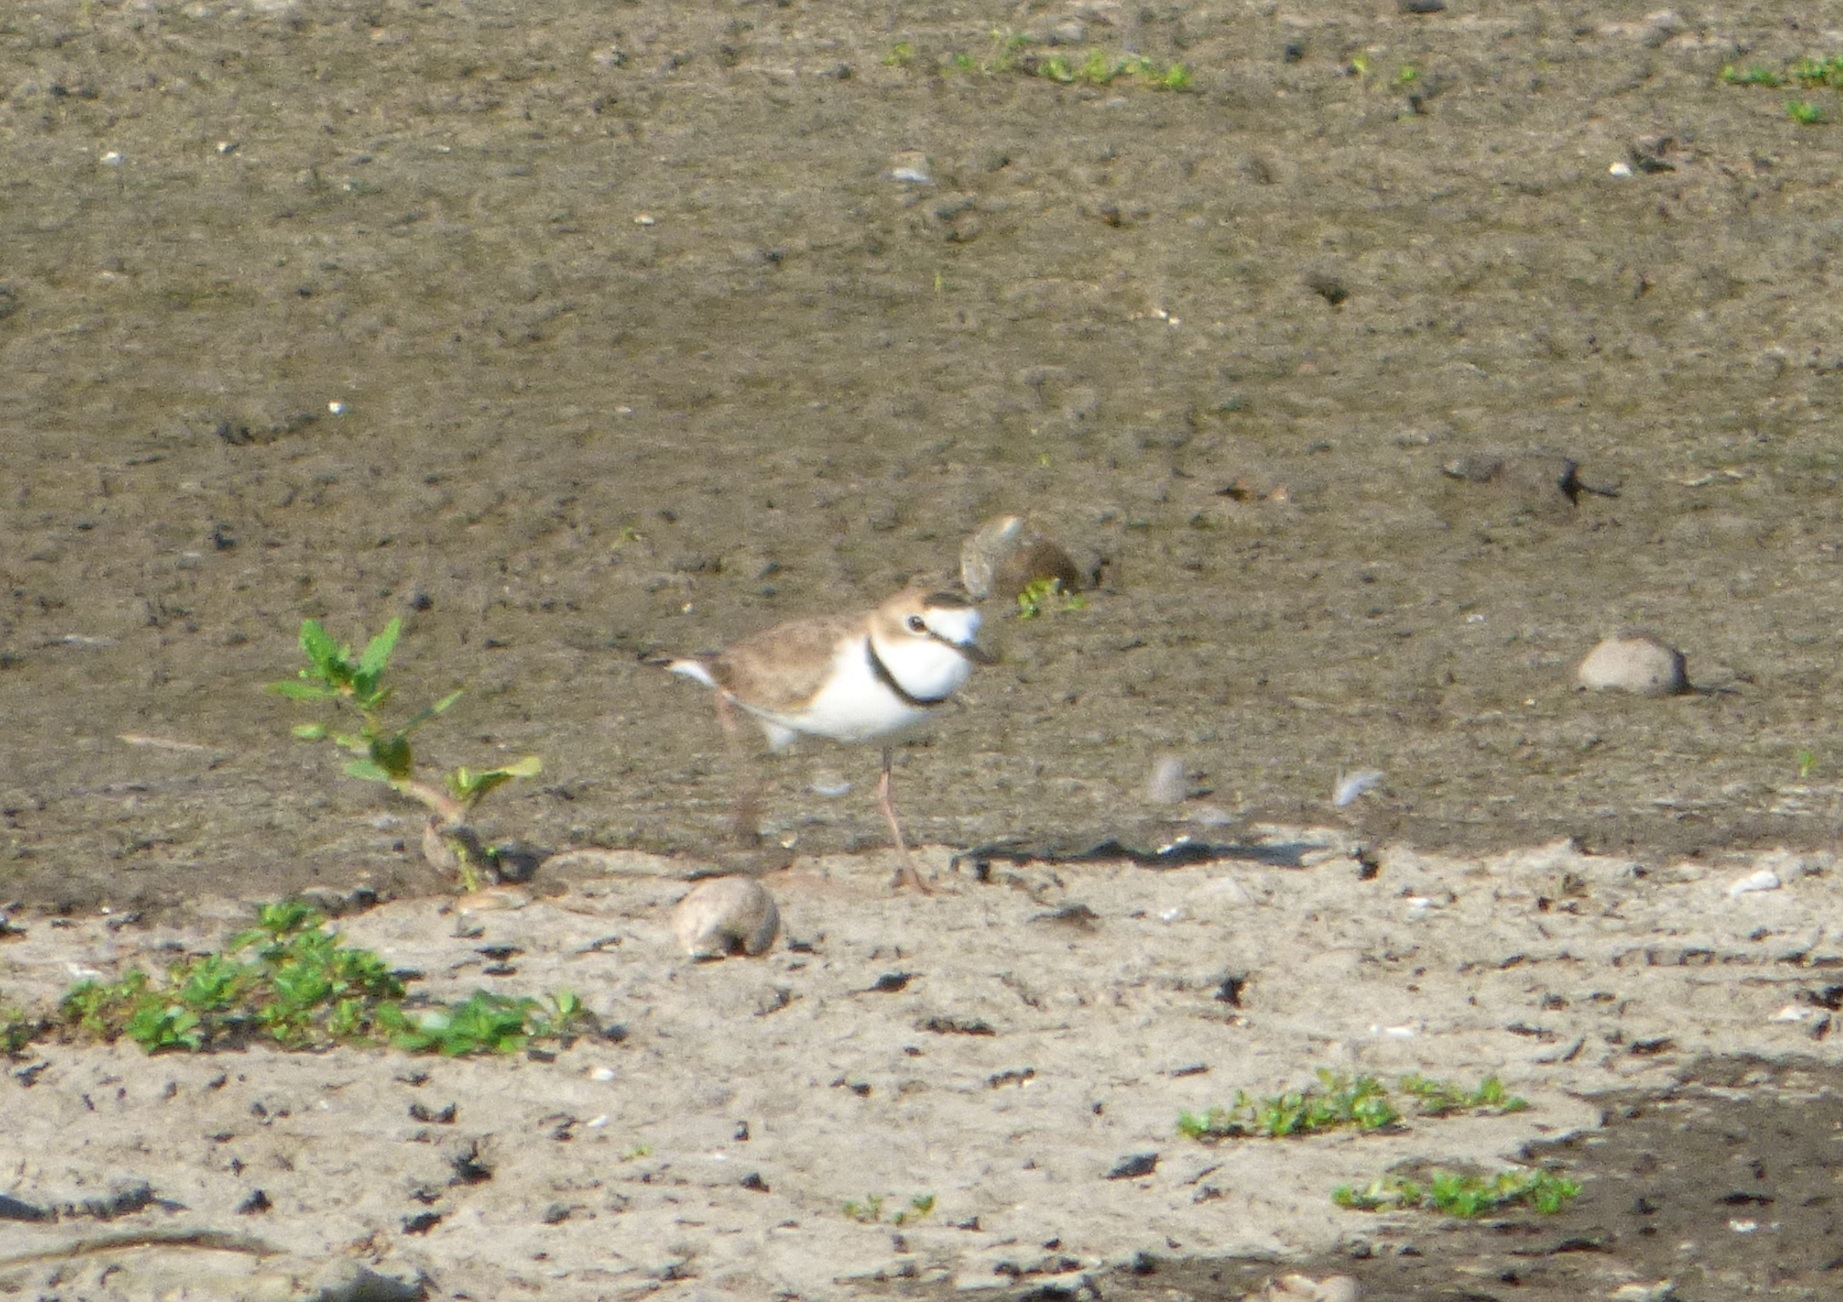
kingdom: Animalia
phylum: Chordata
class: Aves
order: Charadriiformes
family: Charadriidae
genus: Anarhynchus
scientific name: Anarhynchus
